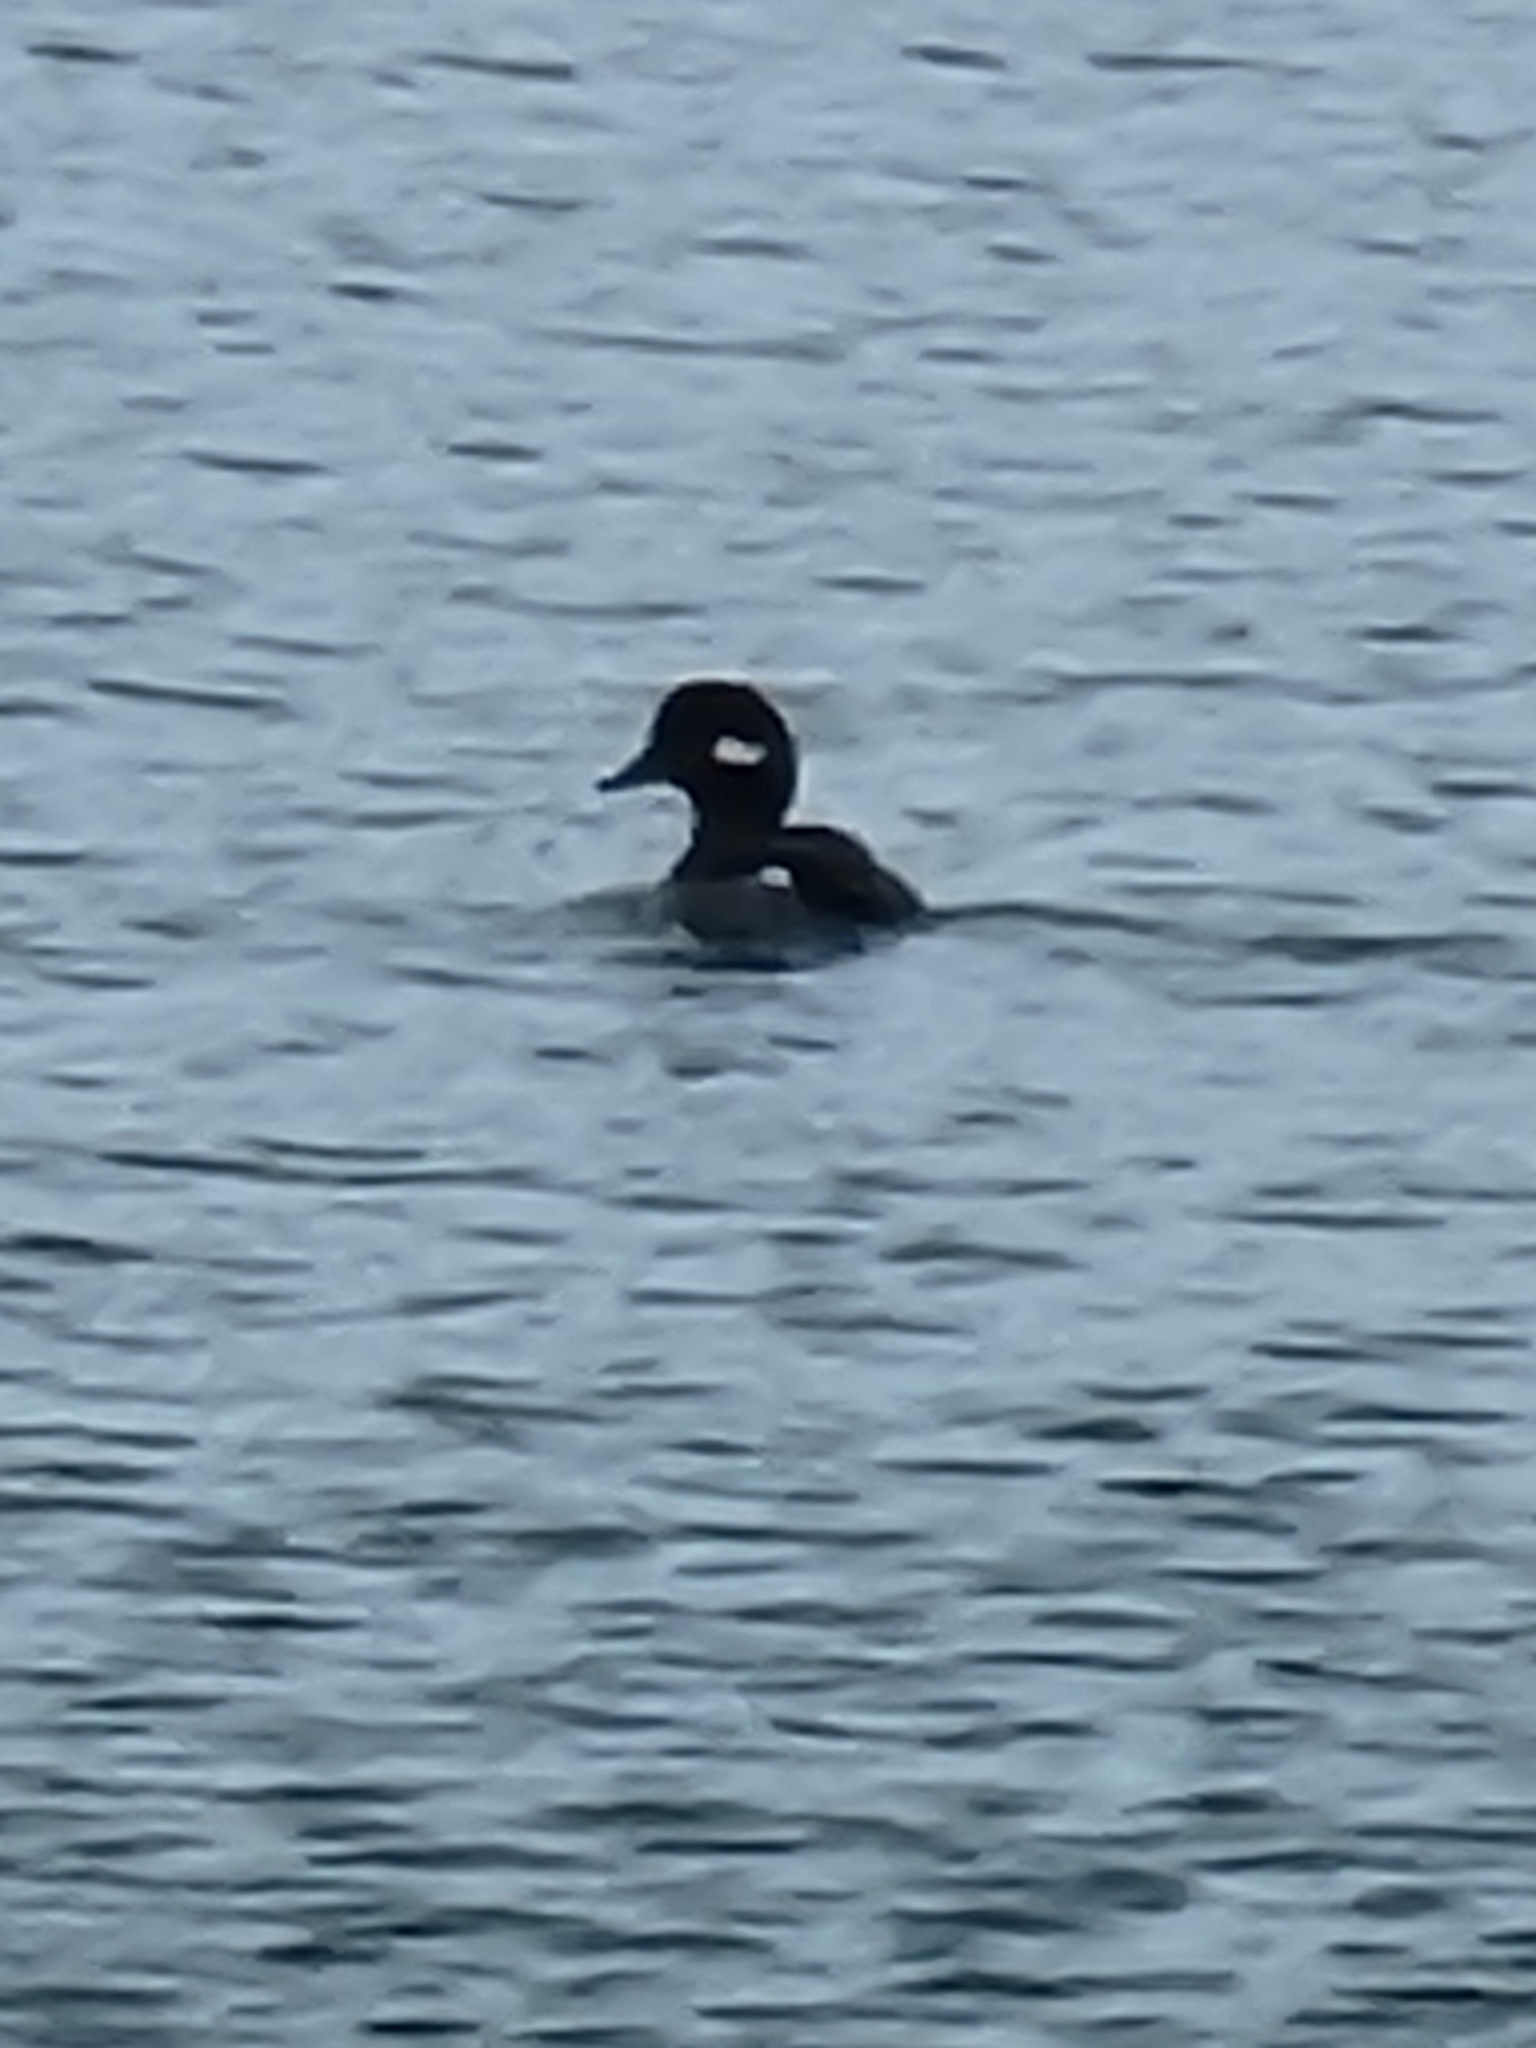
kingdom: Animalia
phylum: Chordata
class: Aves
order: Anseriformes
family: Anatidae
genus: Bucephala
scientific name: Bucephala albeola
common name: Bufflehead
